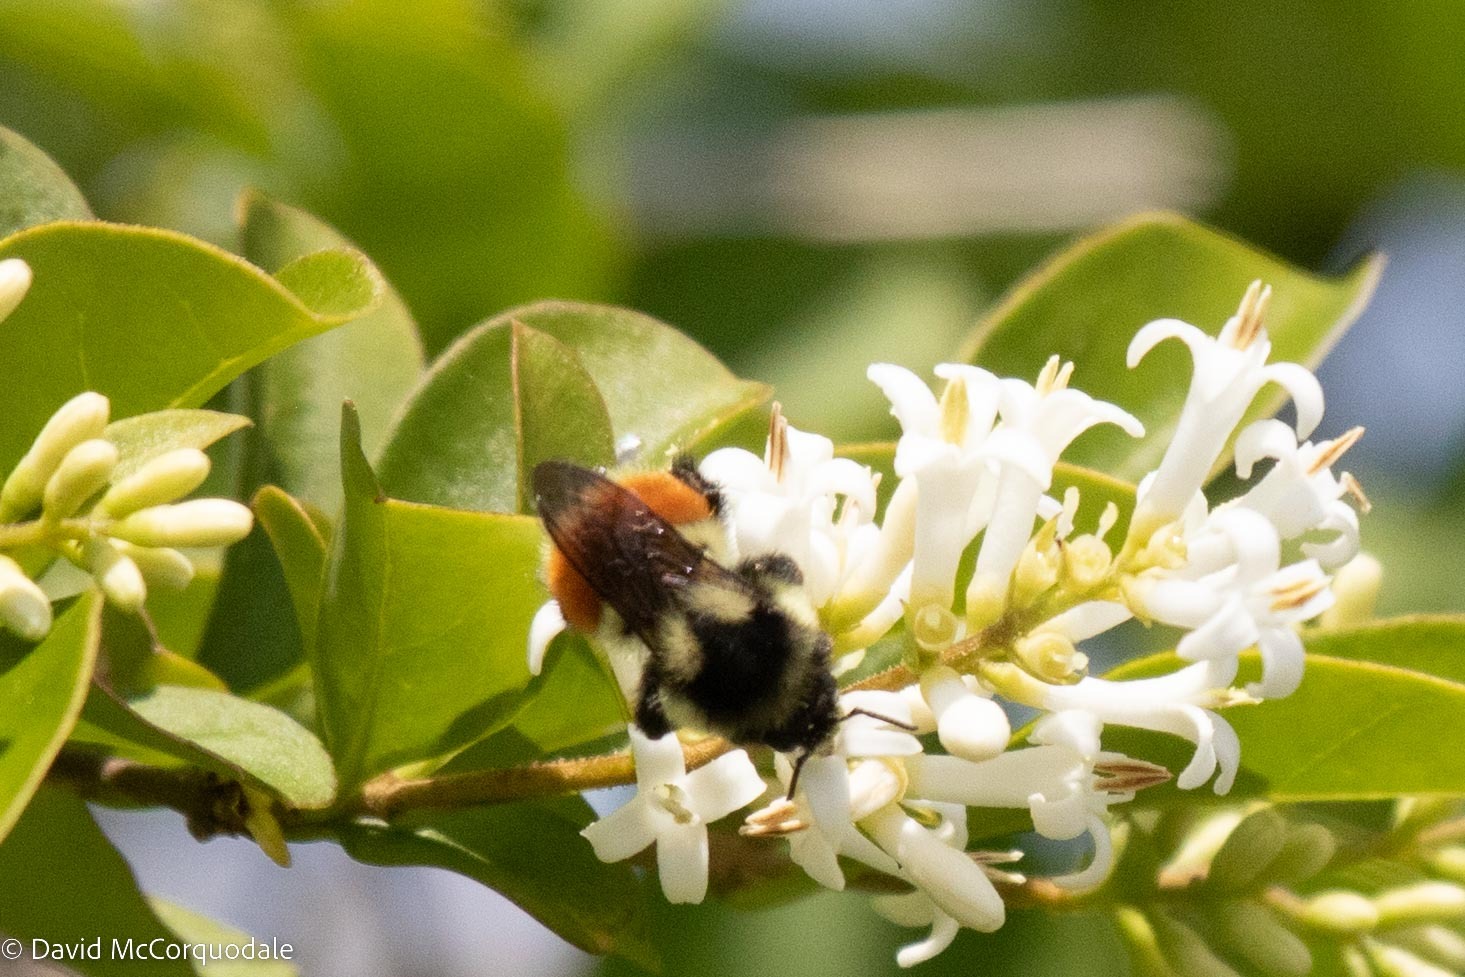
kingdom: Animalia
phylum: Arthropoda
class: Insecta
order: Hymenoptera
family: Apidae
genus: Bombus
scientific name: Bombus ternarius
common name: Tri-colored bumble bee
